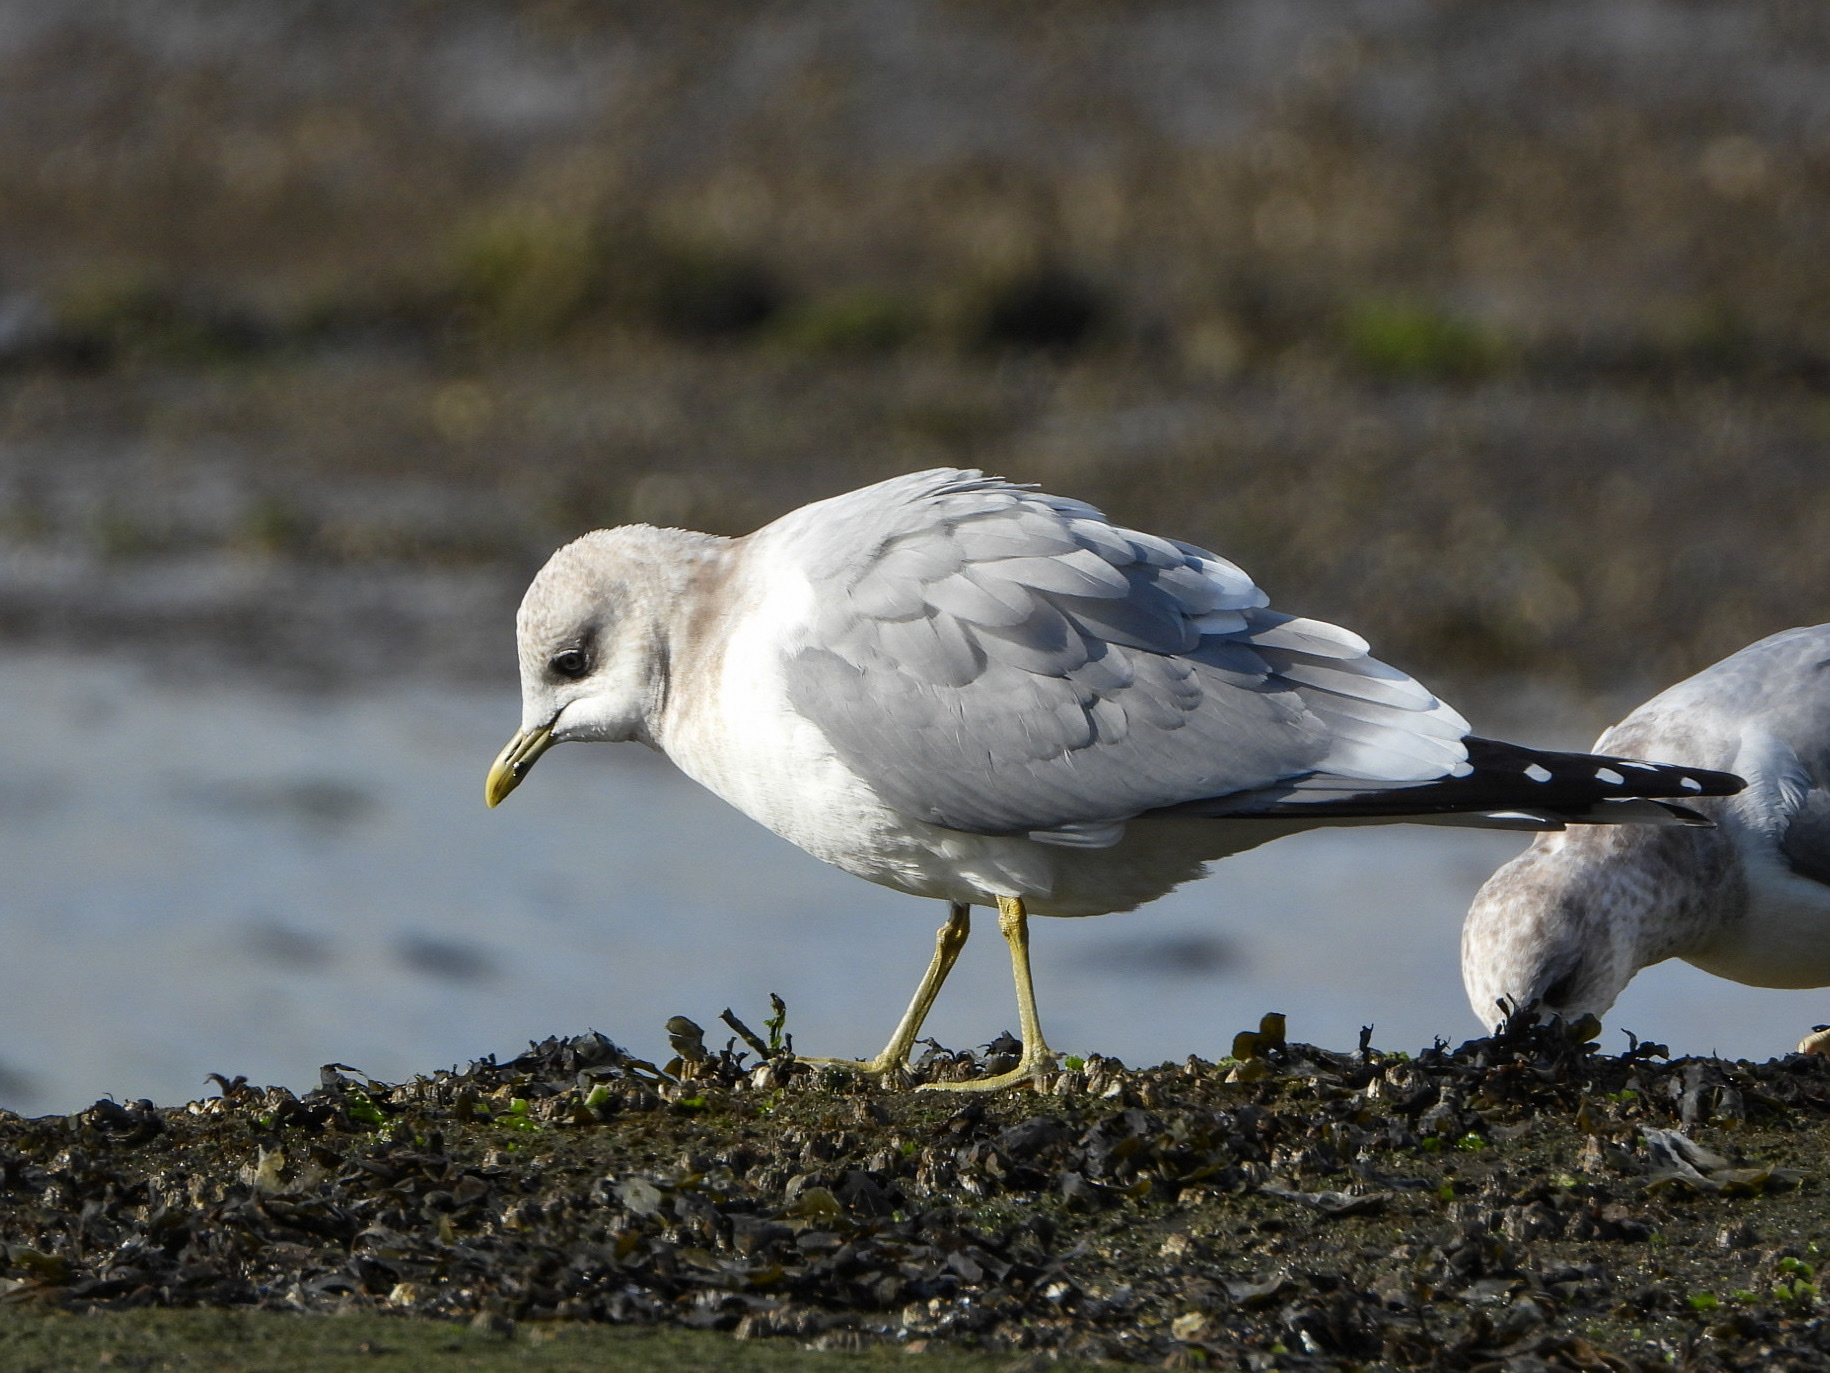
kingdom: Animalia
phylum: Chordata
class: Aves
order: Charadriiformes
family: Laridae
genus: Larus
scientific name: Larus brachyrhynchus
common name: Short-billed gull
